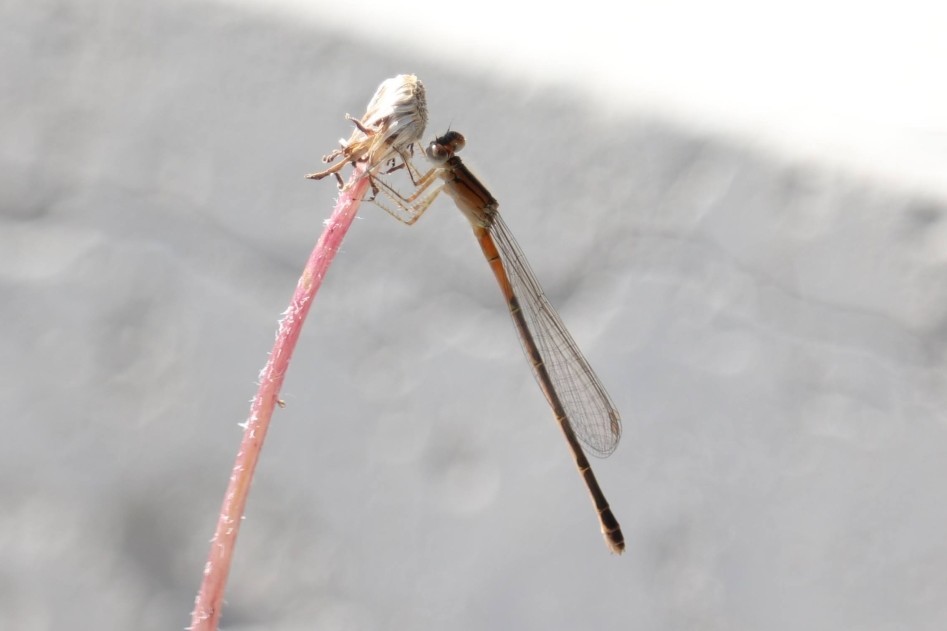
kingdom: Animalia
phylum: Arthropoda
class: Insecta
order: Odonata
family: Coenagrionidae
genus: Ischnura
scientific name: Ischnura verticalis
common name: Eastern forktail
